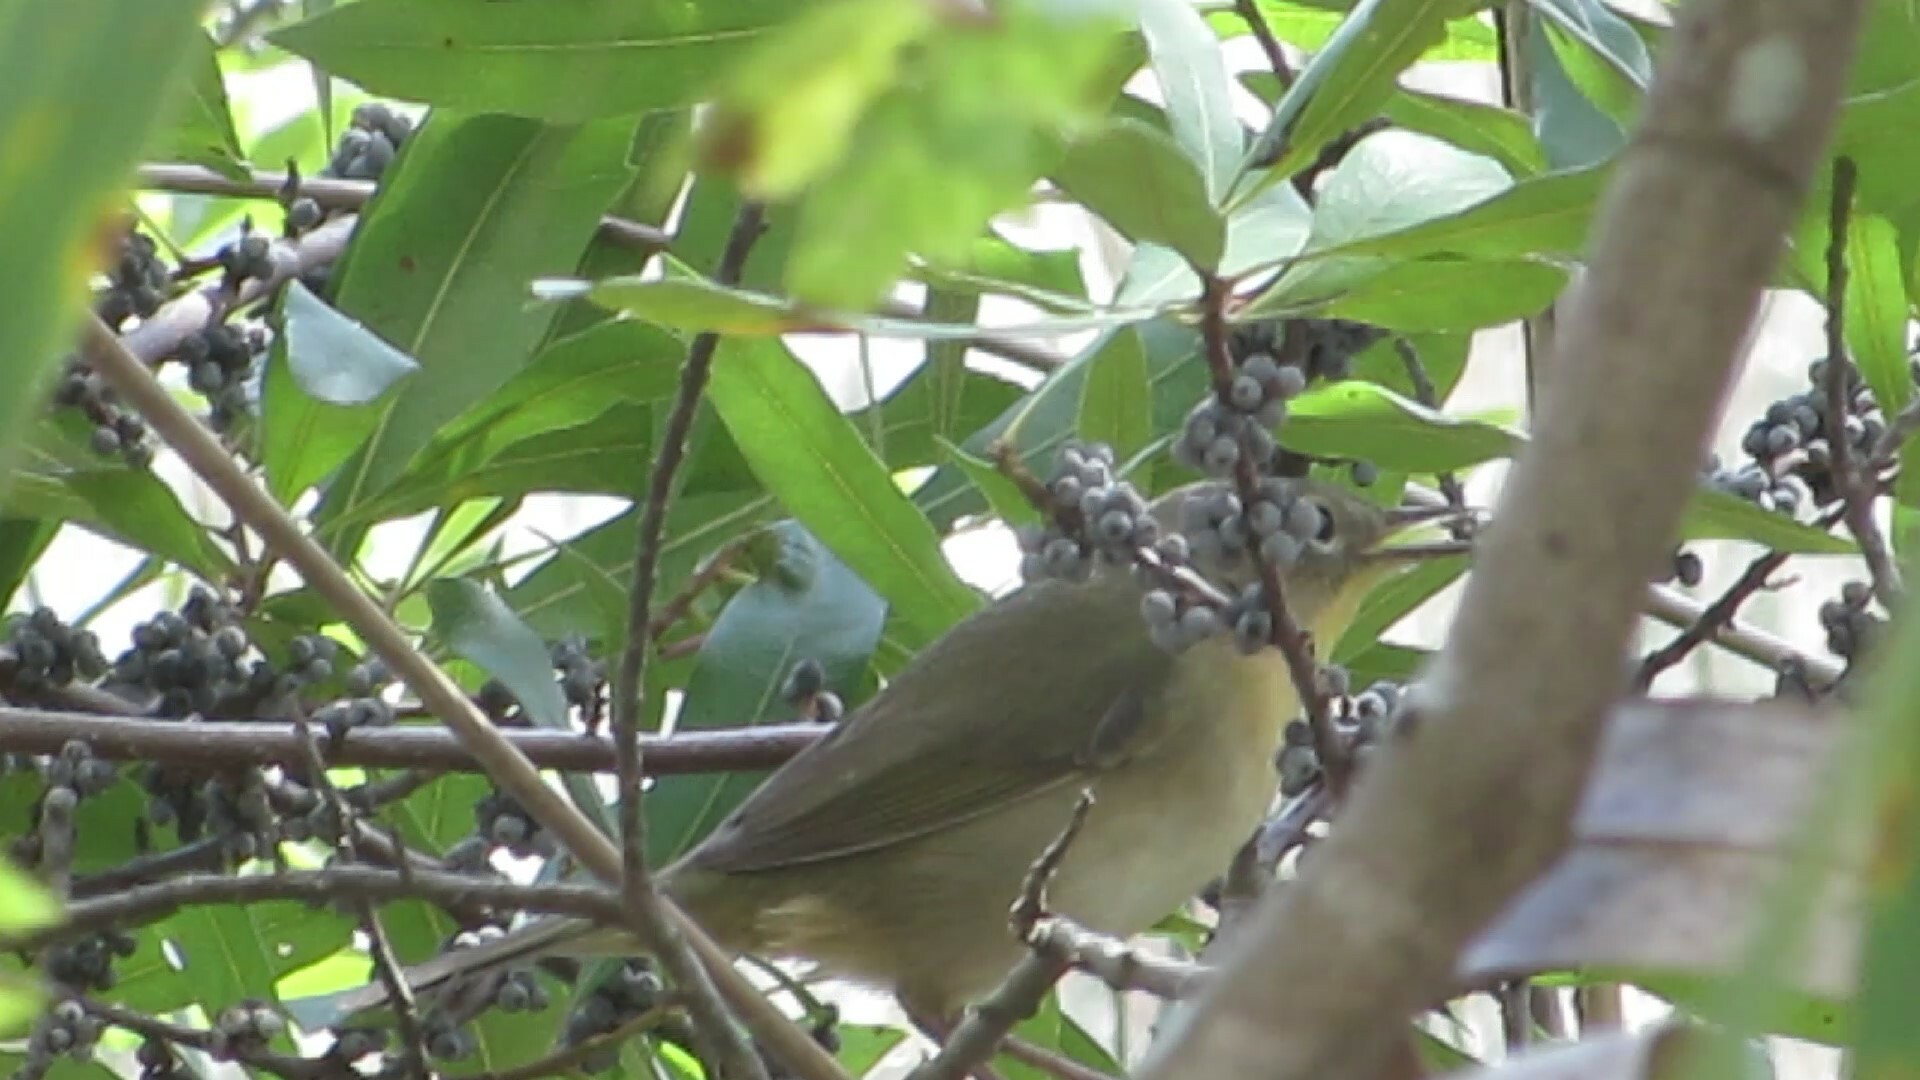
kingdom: Animalia
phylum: Chordata
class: Aves
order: Passeriformes
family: Parulidae
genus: Geothlypis
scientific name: Geothlypis trichas
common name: Common yellowthroat
